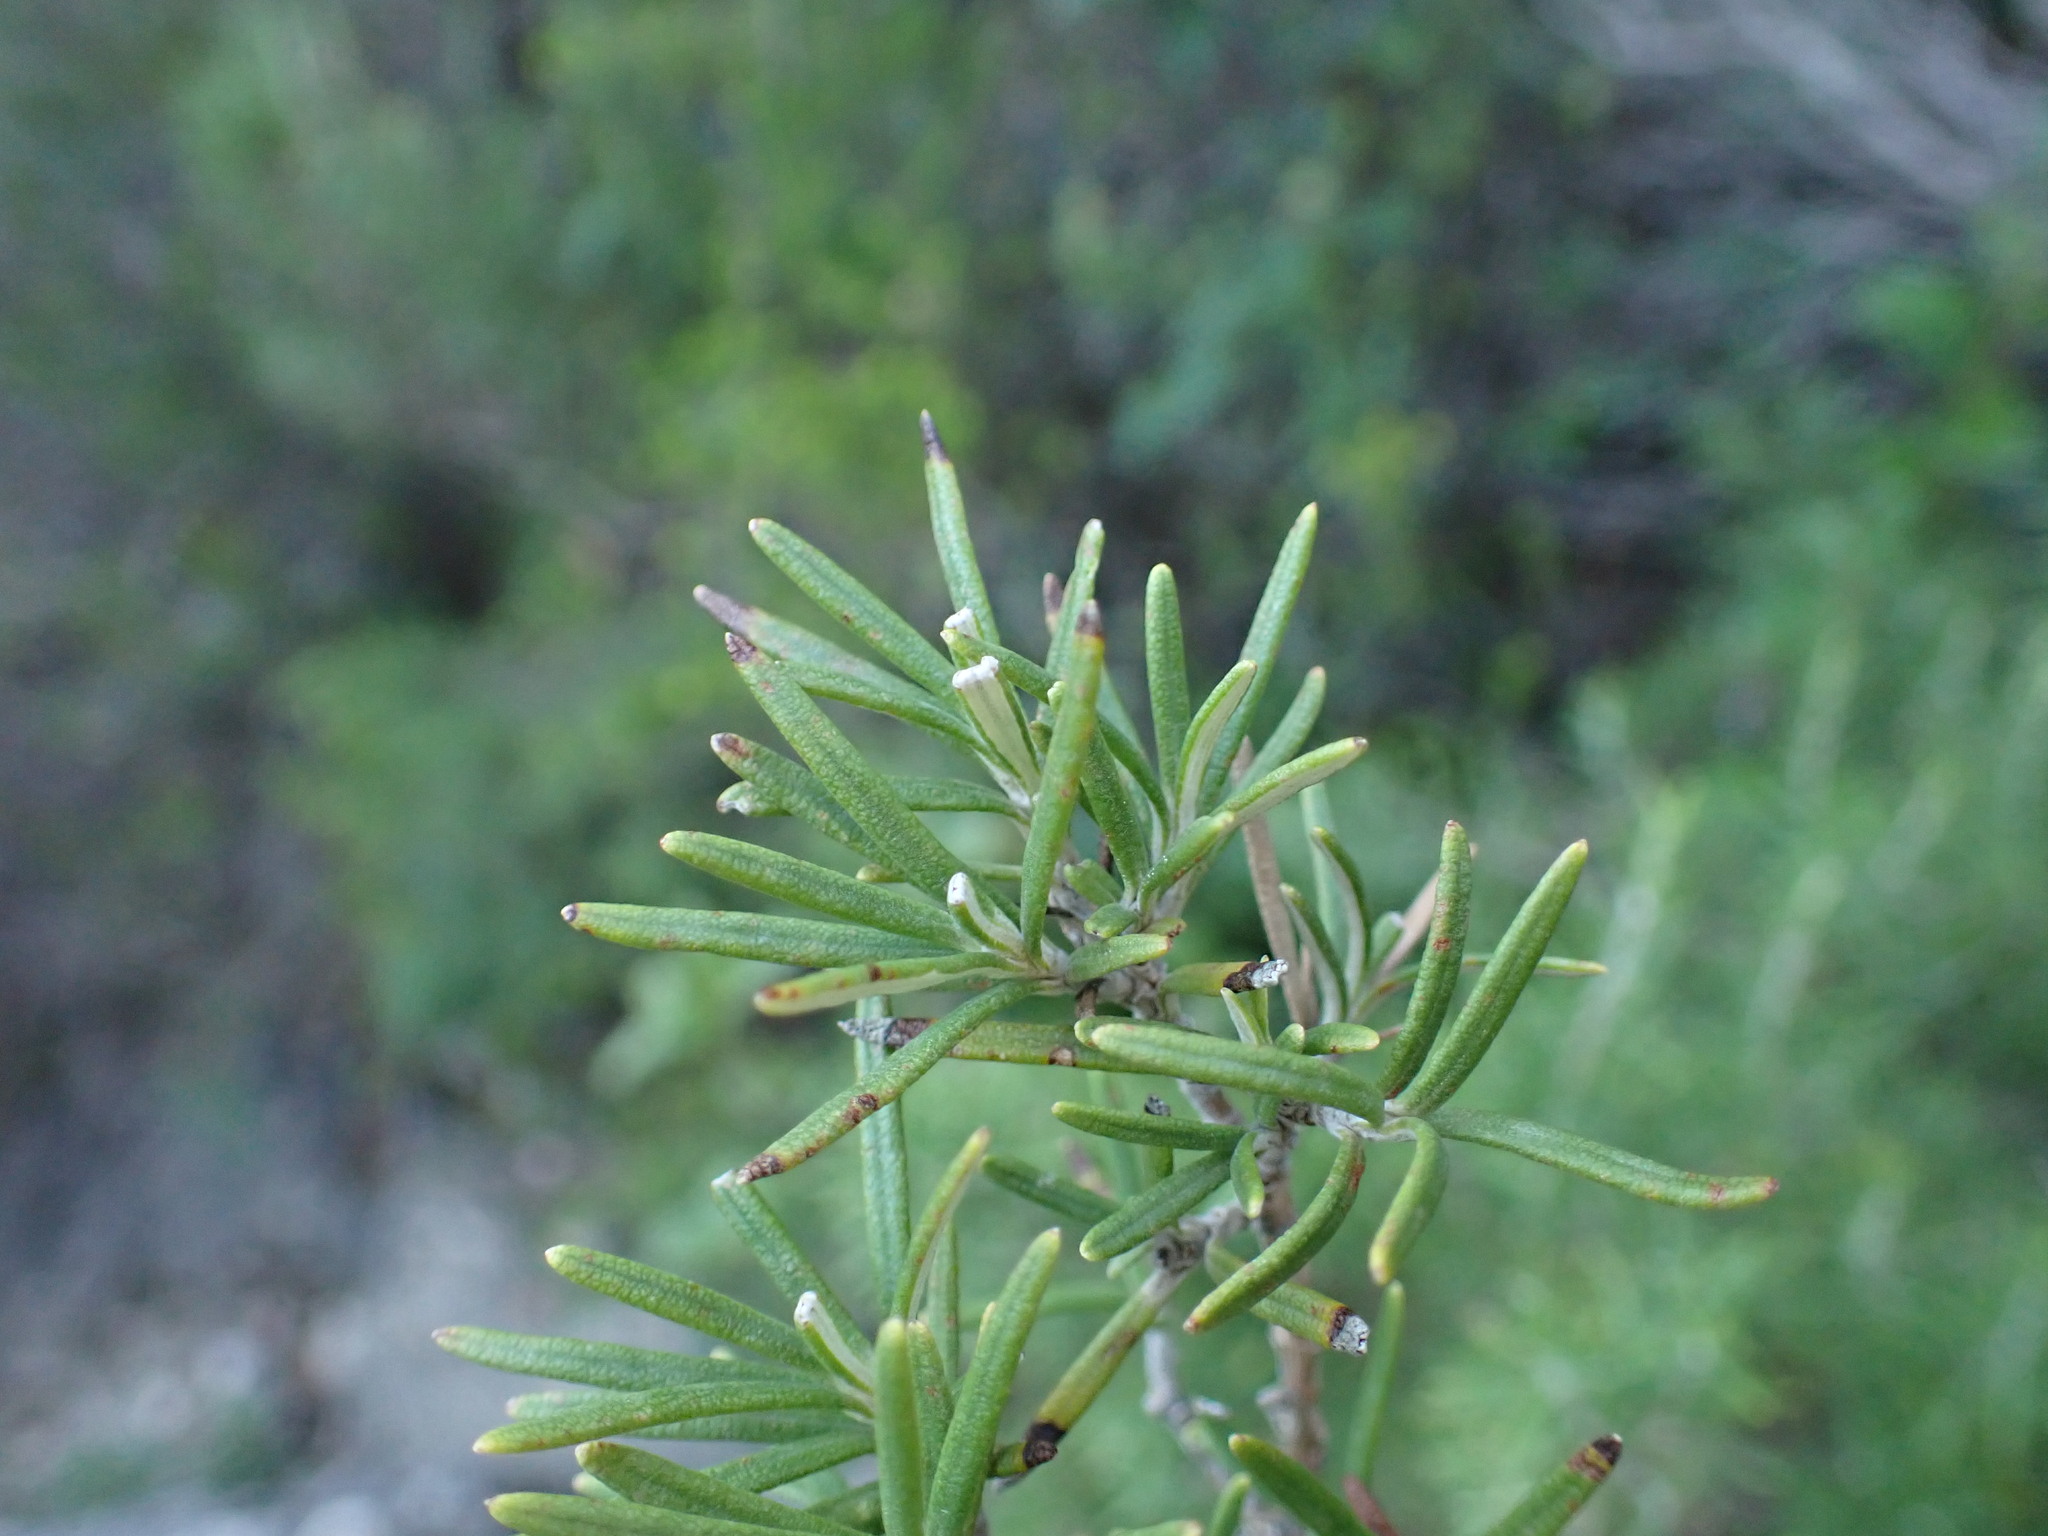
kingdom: Plantae
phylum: Tracheophyta
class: Magnoliopsida
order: Lamiales
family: Lamiaceae
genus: Salvia
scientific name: Salvia rosmarinus
